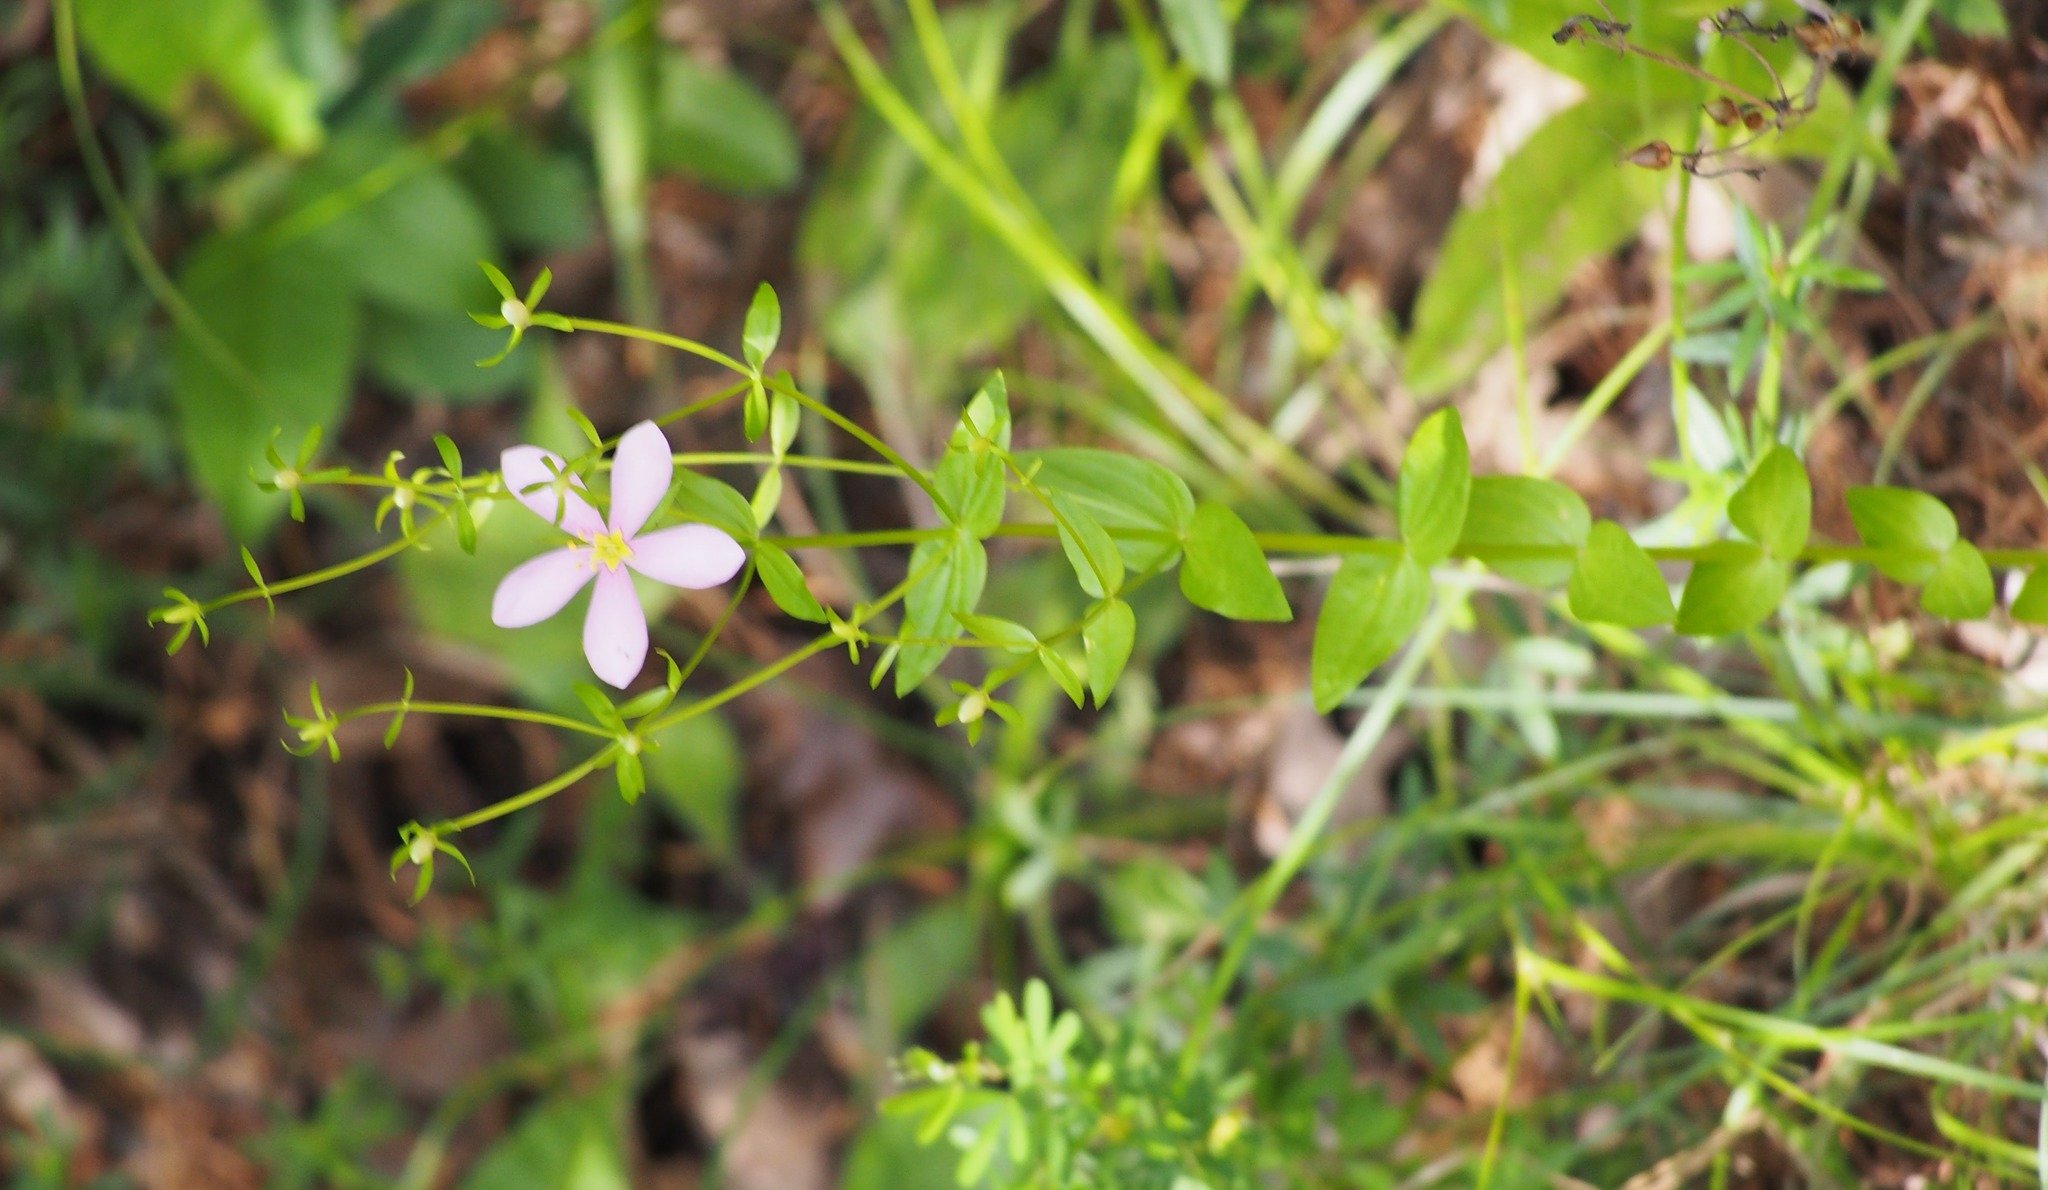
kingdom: Plantae
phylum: Tracheophyta
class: Magnoliopsida
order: Gentianales
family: Gentianaceae
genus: Sabatia
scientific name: Sabatia angularis
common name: Rose-pink
